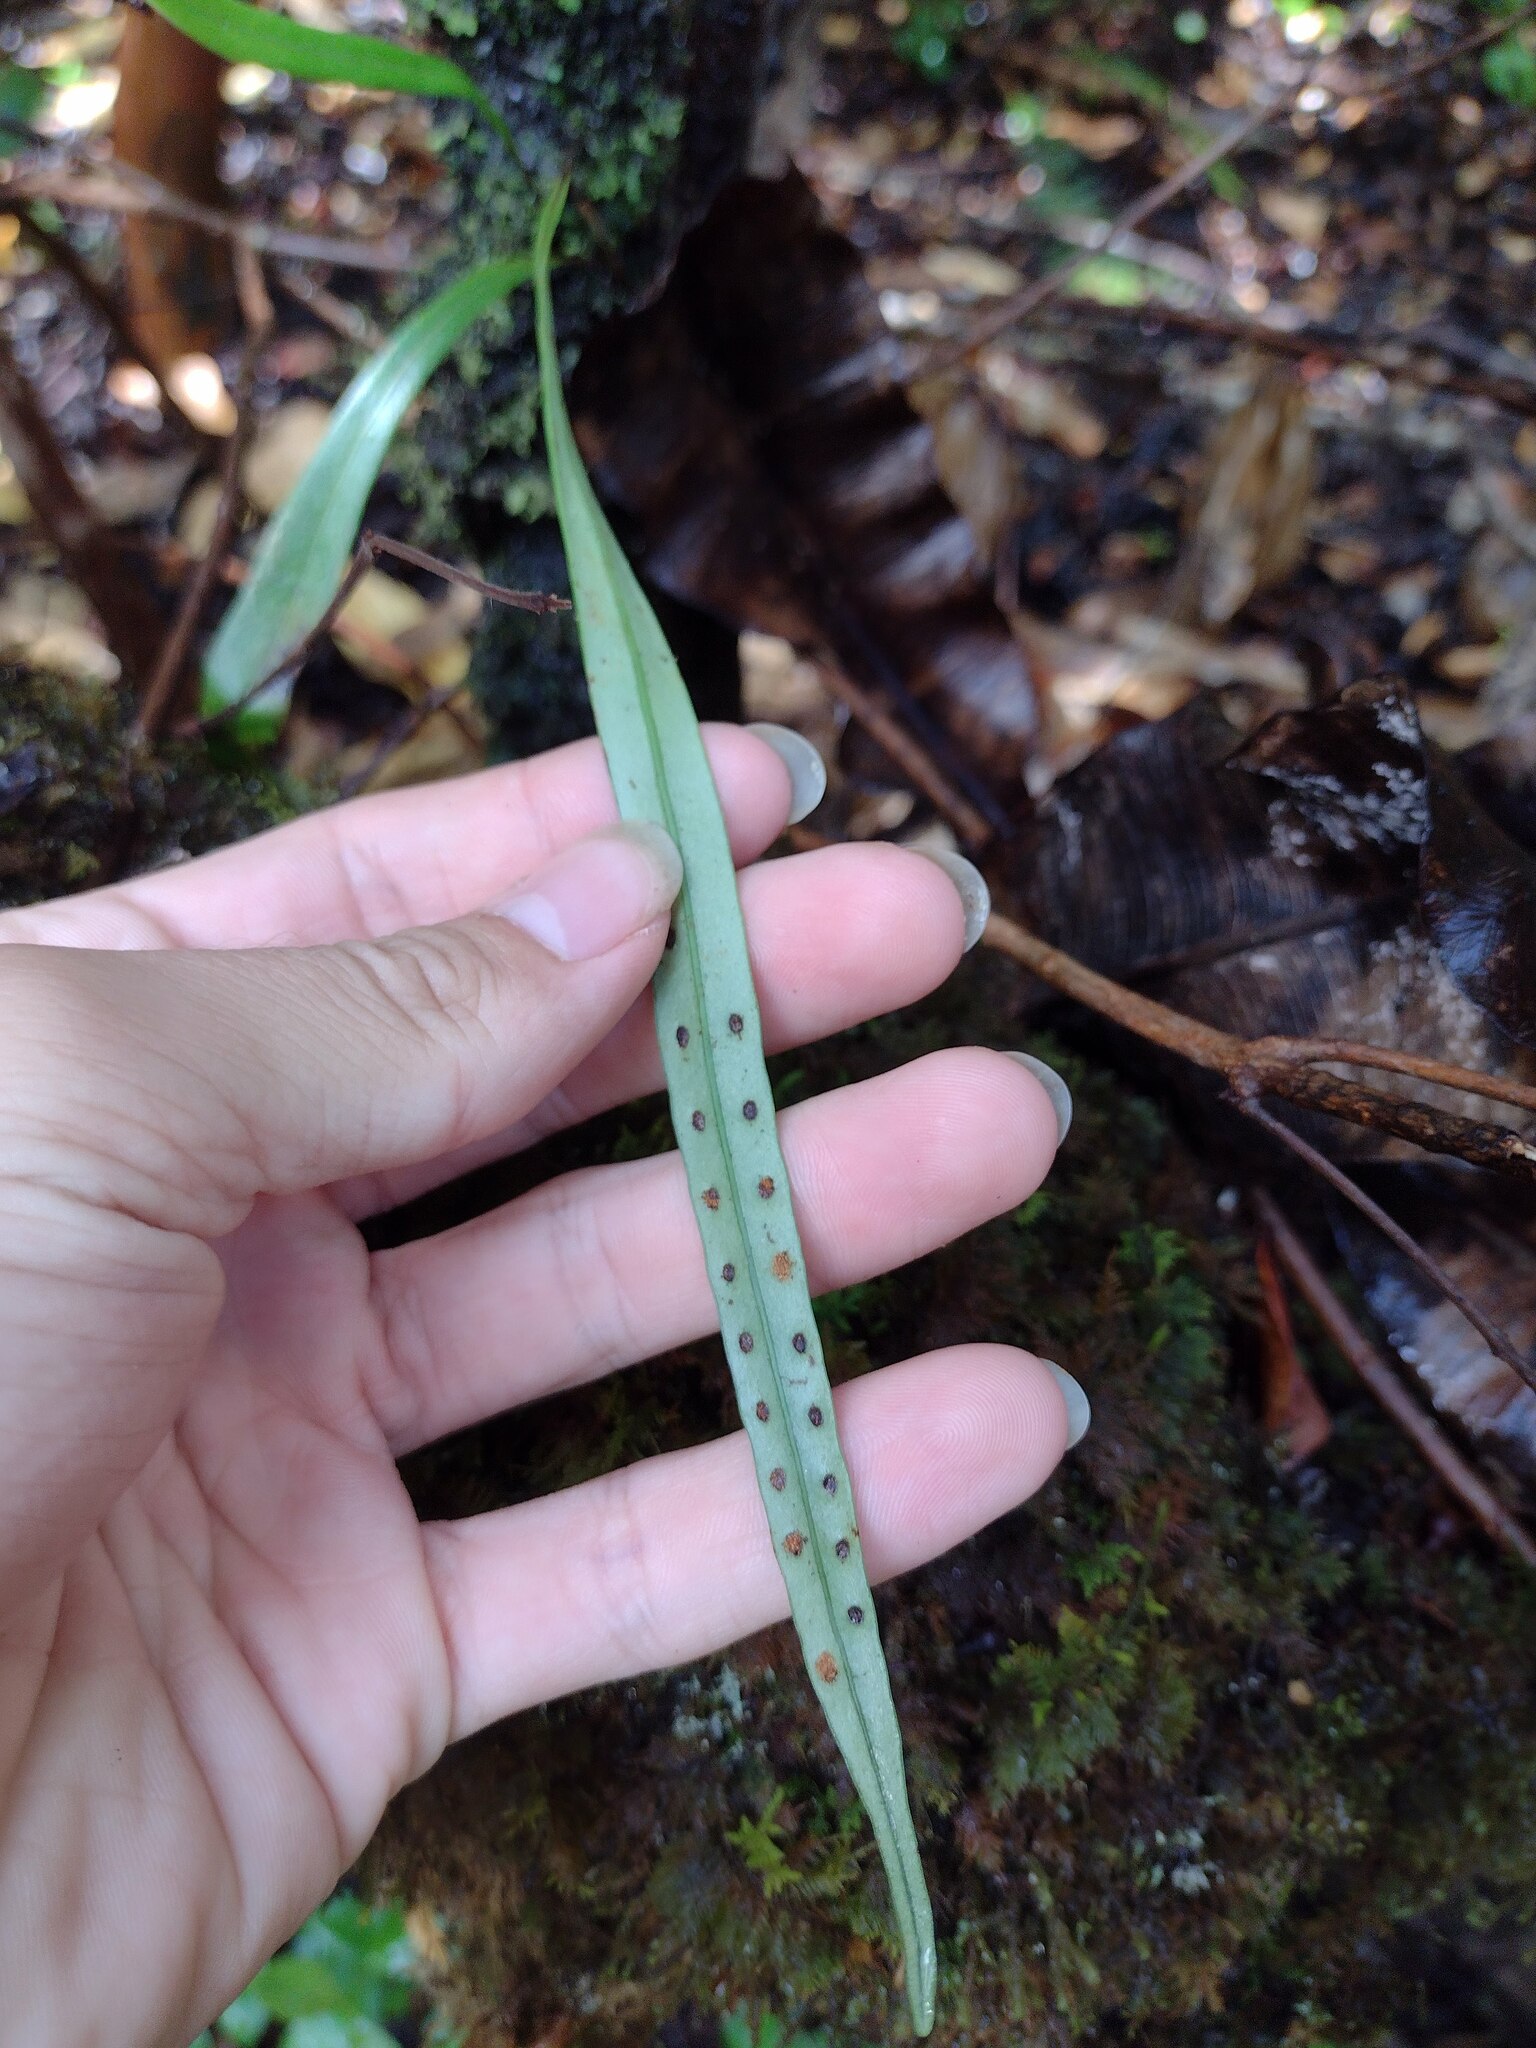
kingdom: Plantae
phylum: Tracheophyta
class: Polypodiopsida
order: Polypodiales
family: Polypodiaceae
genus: Lepisorus
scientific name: Lepisorus thunbergianus
